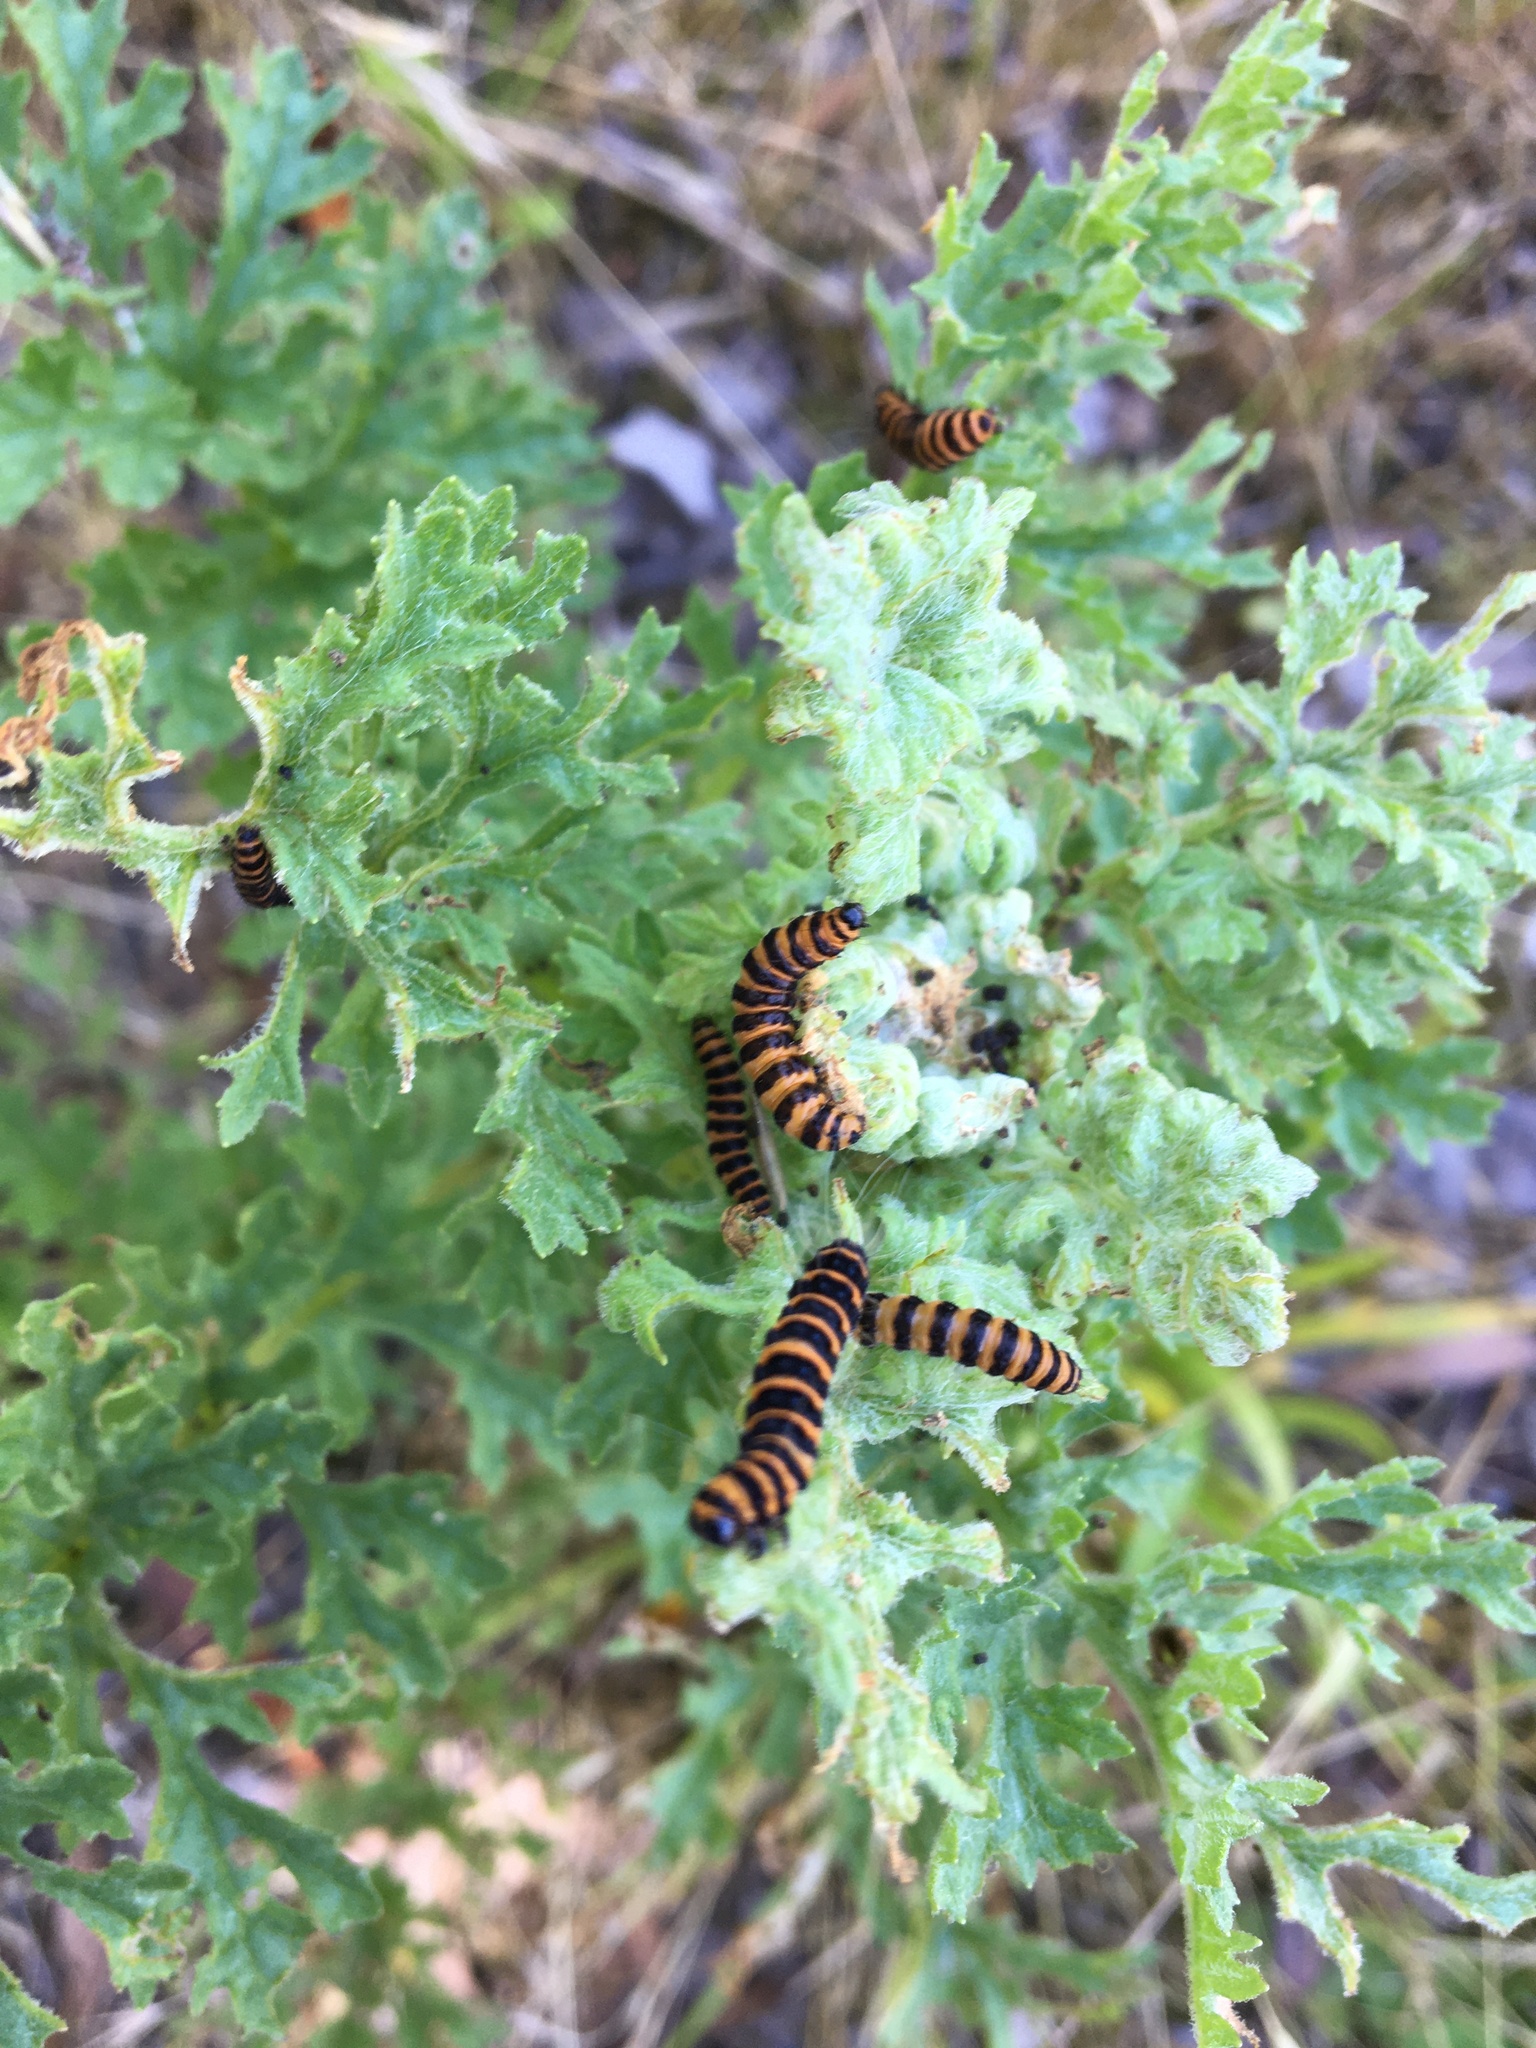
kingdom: Animalia
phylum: Arthropoda
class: Insecta
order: Lepidoptera
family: Erebidae
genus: Tyria
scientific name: Tyria jacobaeae
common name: Cinnabar
